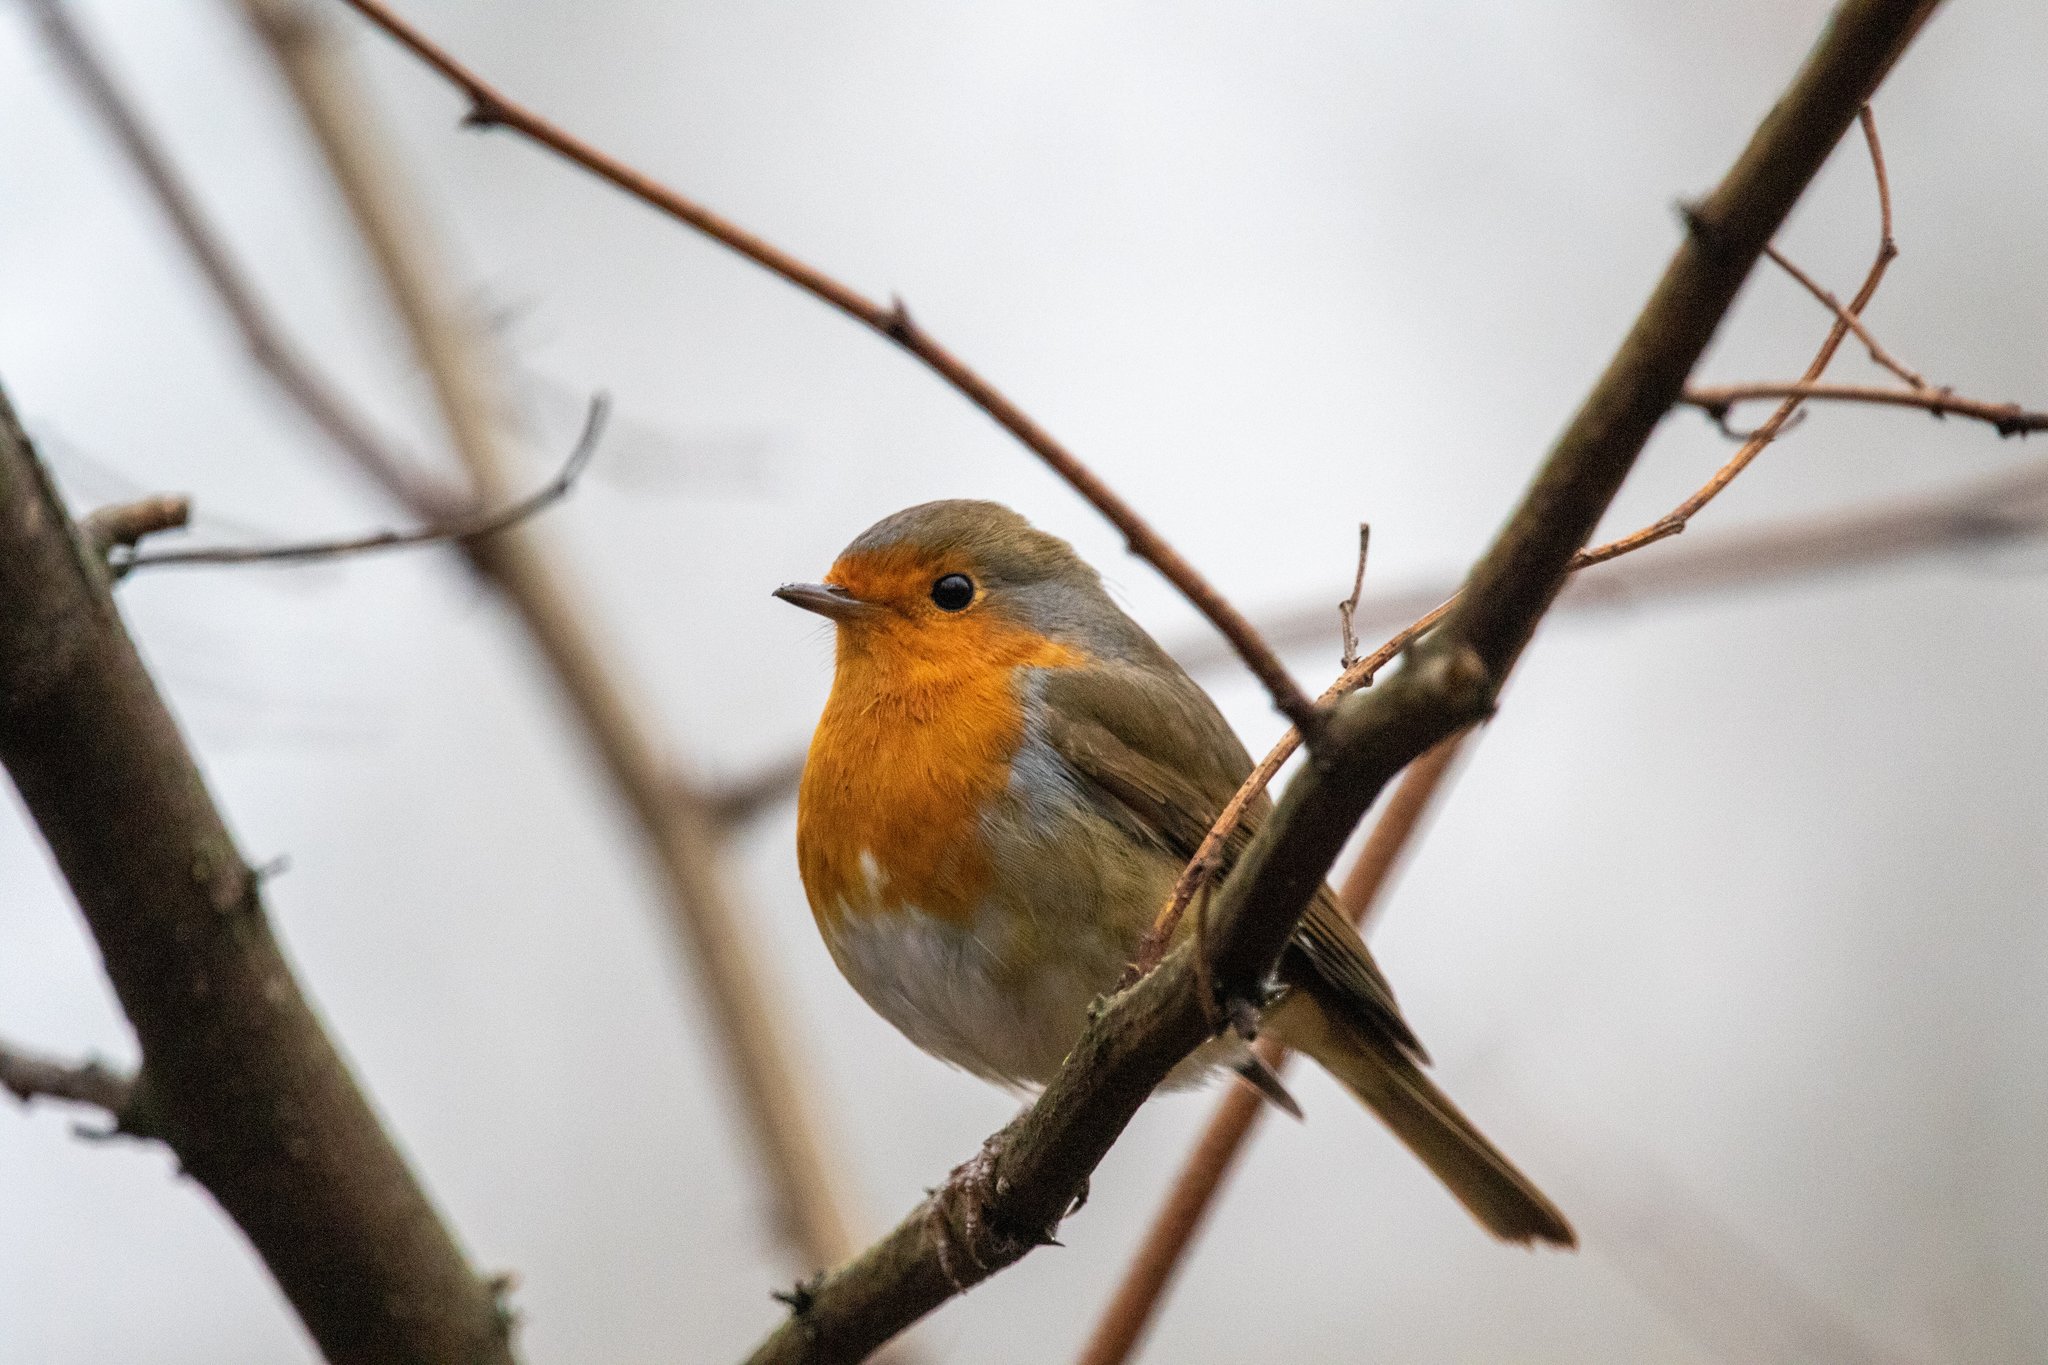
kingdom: Animalia
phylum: Chordata
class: Aves
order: Passeriformes
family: Muscicapidae
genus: Erithacus
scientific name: Erithacus rubecula
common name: European robin
